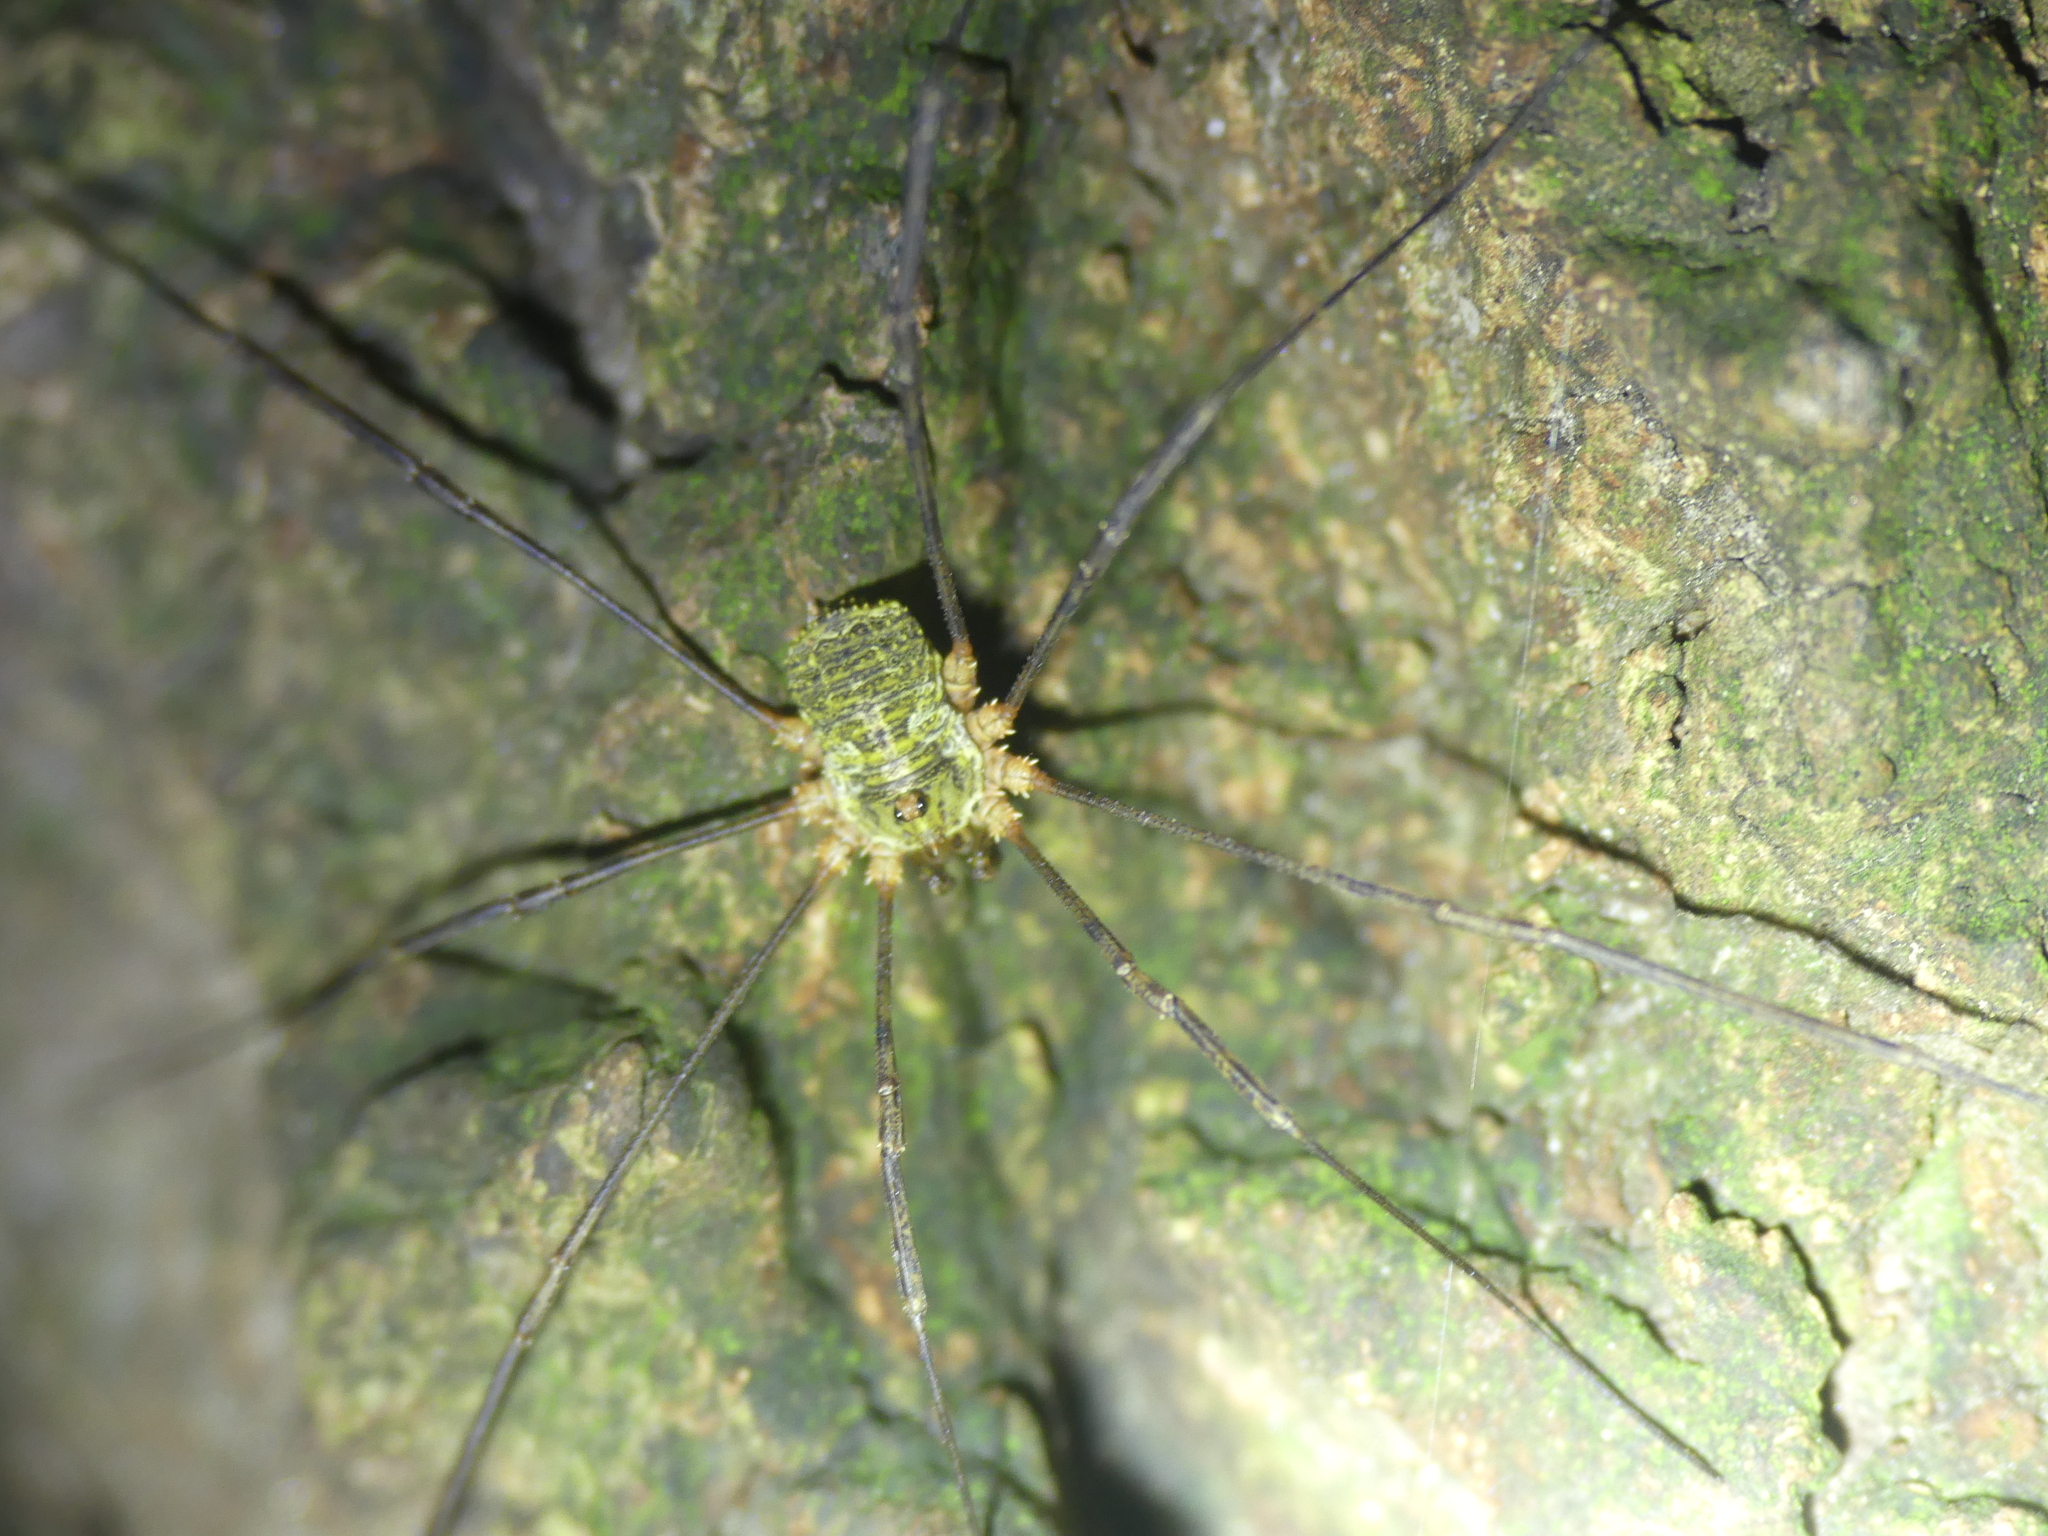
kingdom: Animalia
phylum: Arthropoda
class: Arachnida
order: Opiliones
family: Phalangiidae
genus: Lacinius
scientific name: Lacinius dentiger
